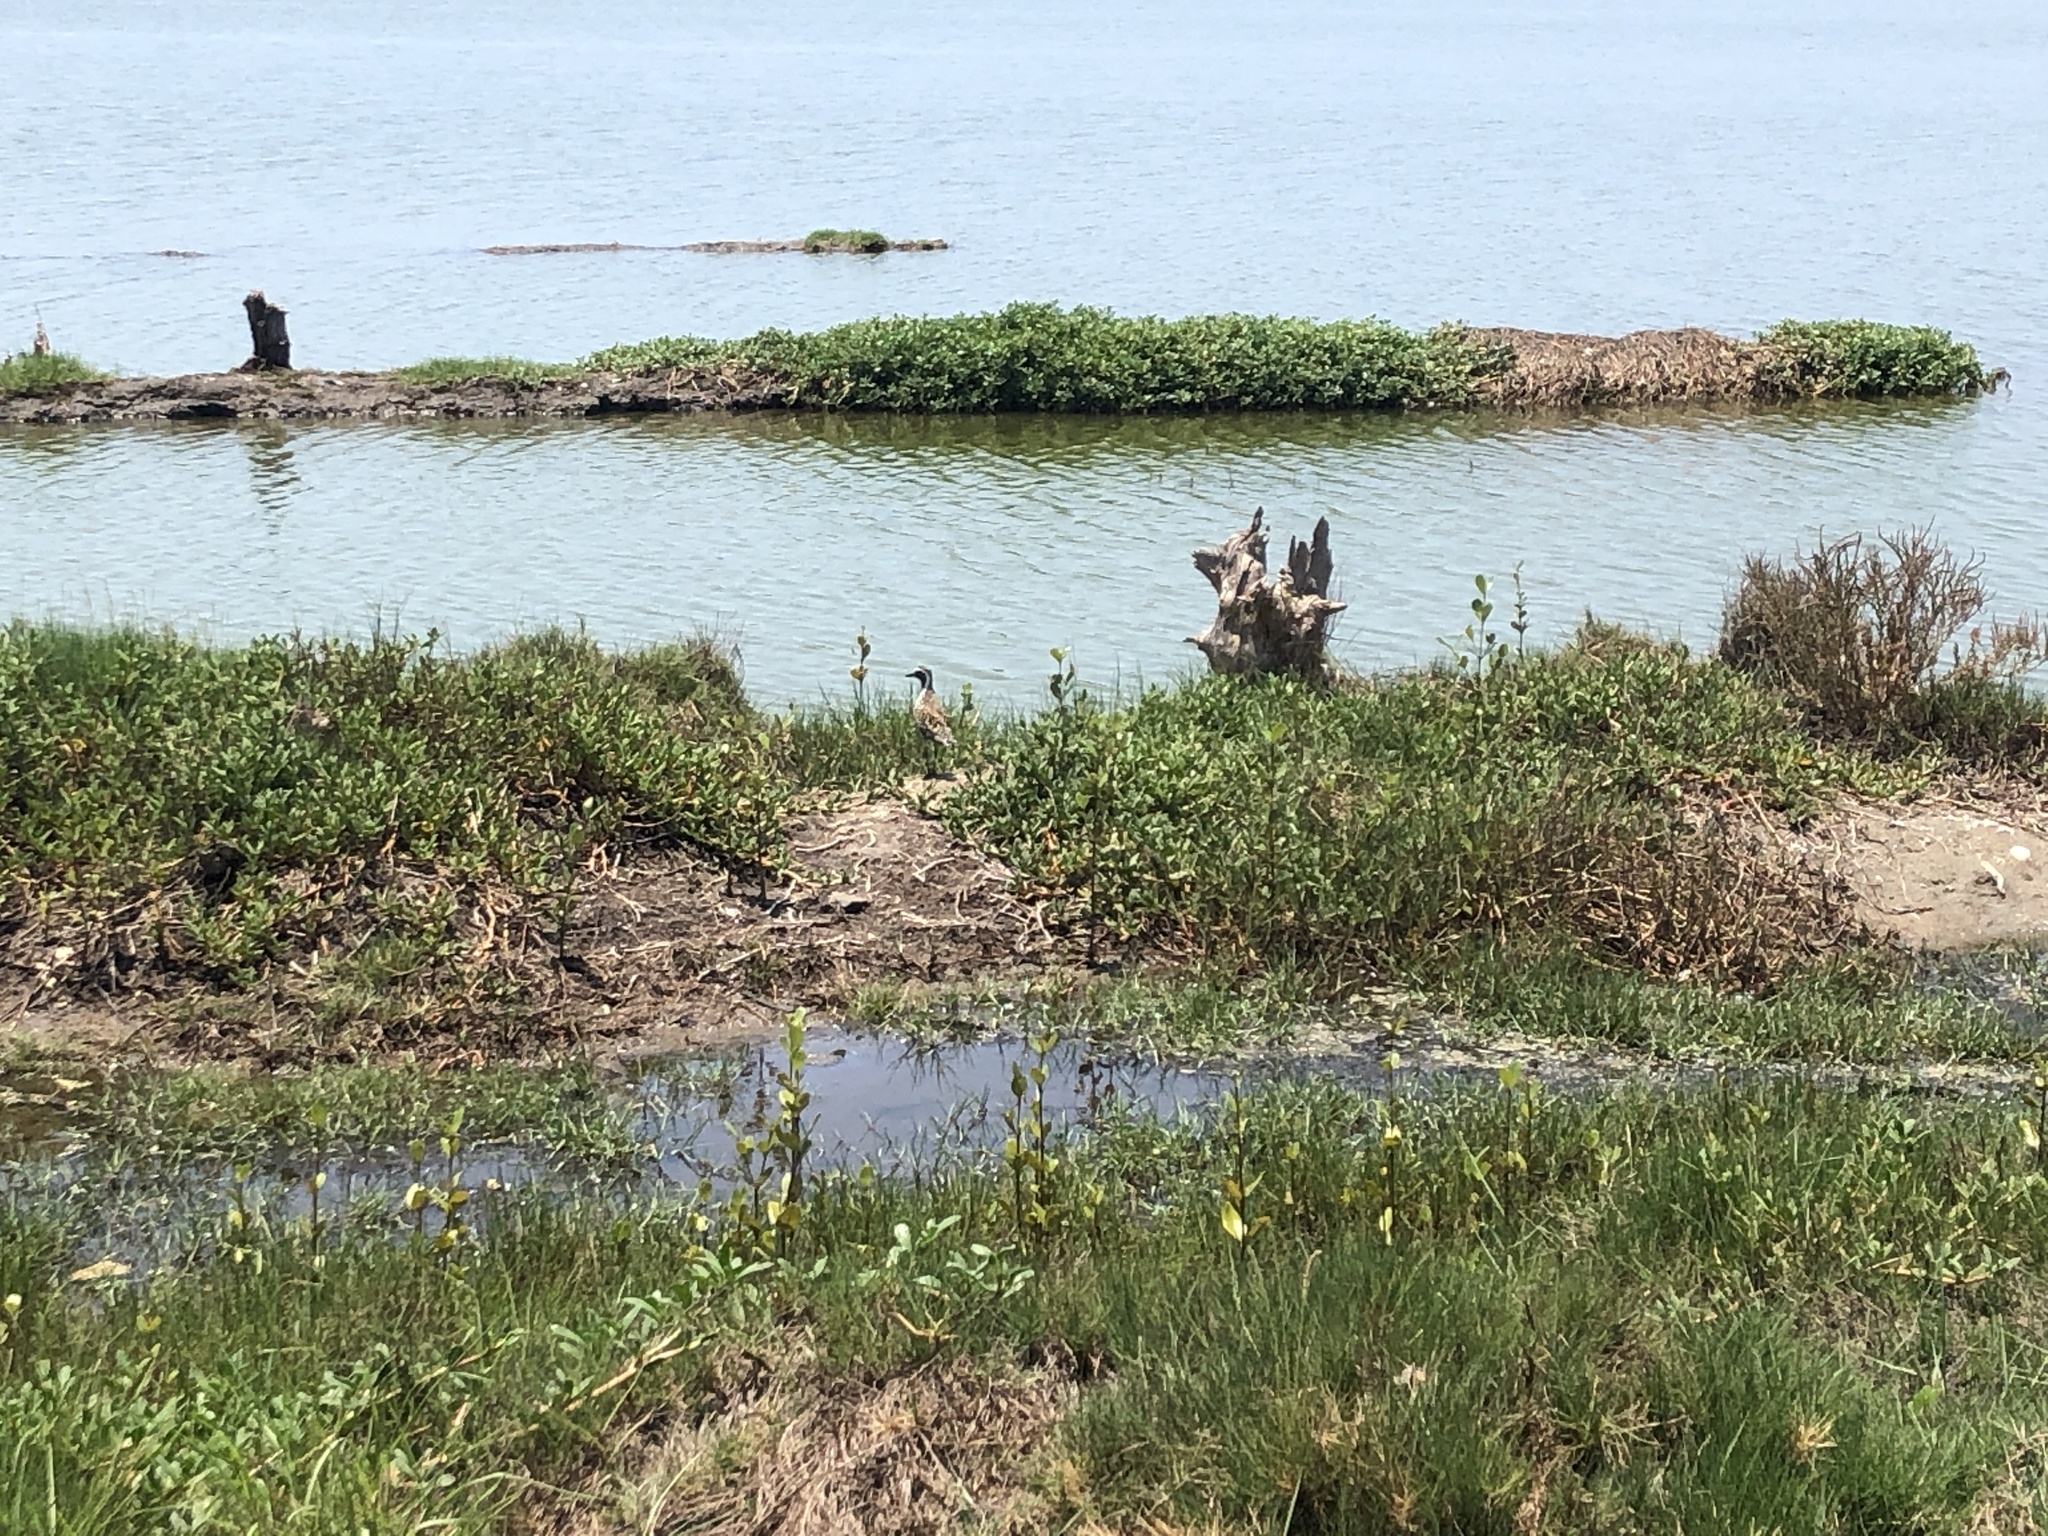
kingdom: Animalia
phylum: Chordata
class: Aves
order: Charadriiformes
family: Charadriidae
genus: Pluvialis
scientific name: Pluvialis fulva
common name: Pacific golden plover
